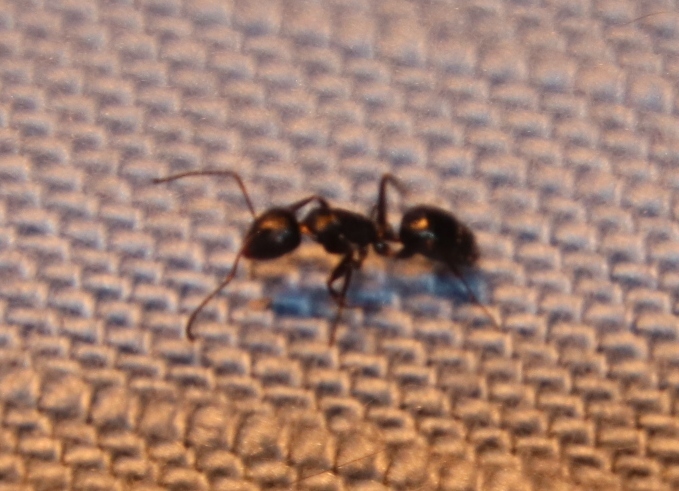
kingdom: Animalia
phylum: Arthropoda
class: Insecta
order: Hymenoptera
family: Formicidae
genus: Camponotus
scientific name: Camponotus werthi
